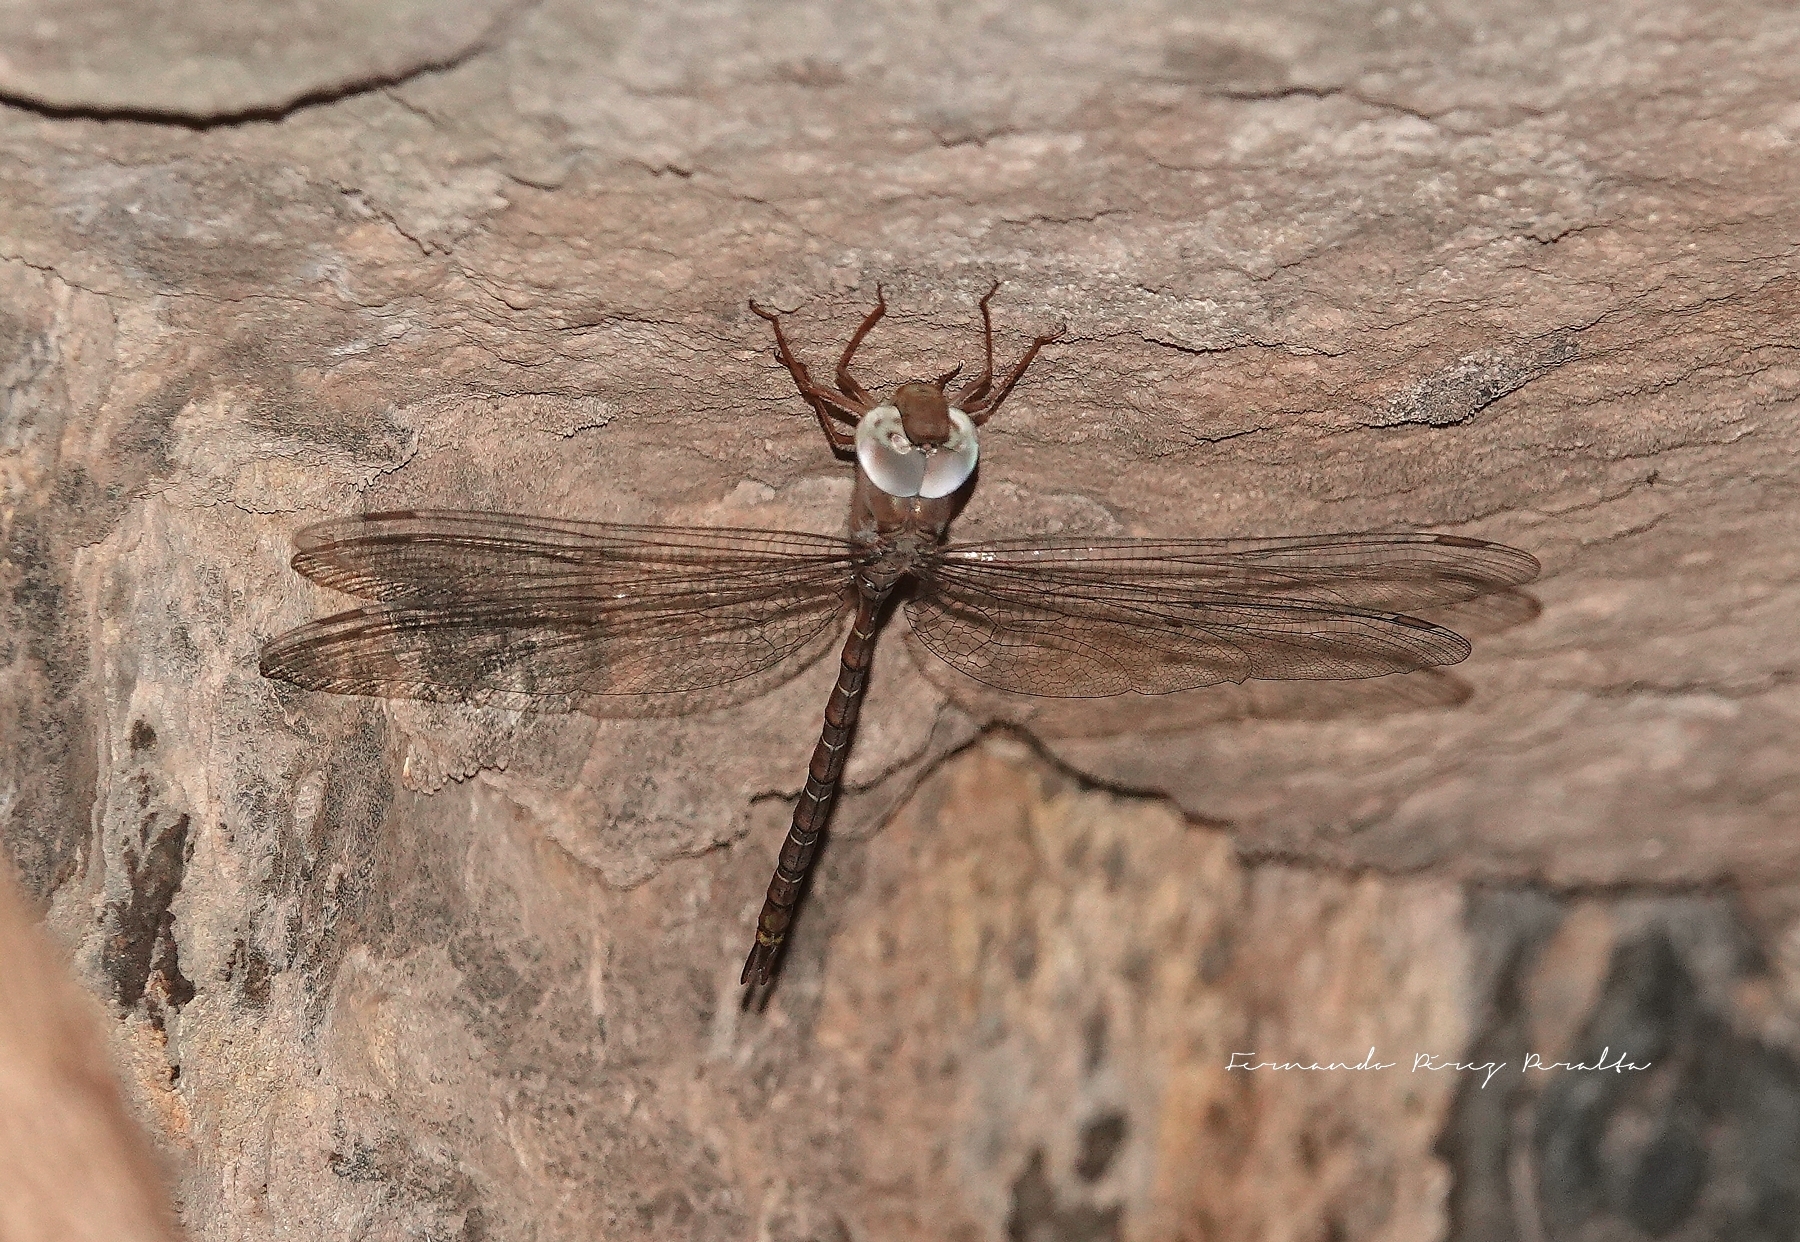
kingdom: Animalia
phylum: Arthropoda
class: Insecta
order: Odonata
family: Aeshnidae
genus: Gynacantha
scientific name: Gynacantha nourlangie
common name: Cave duskhawker
